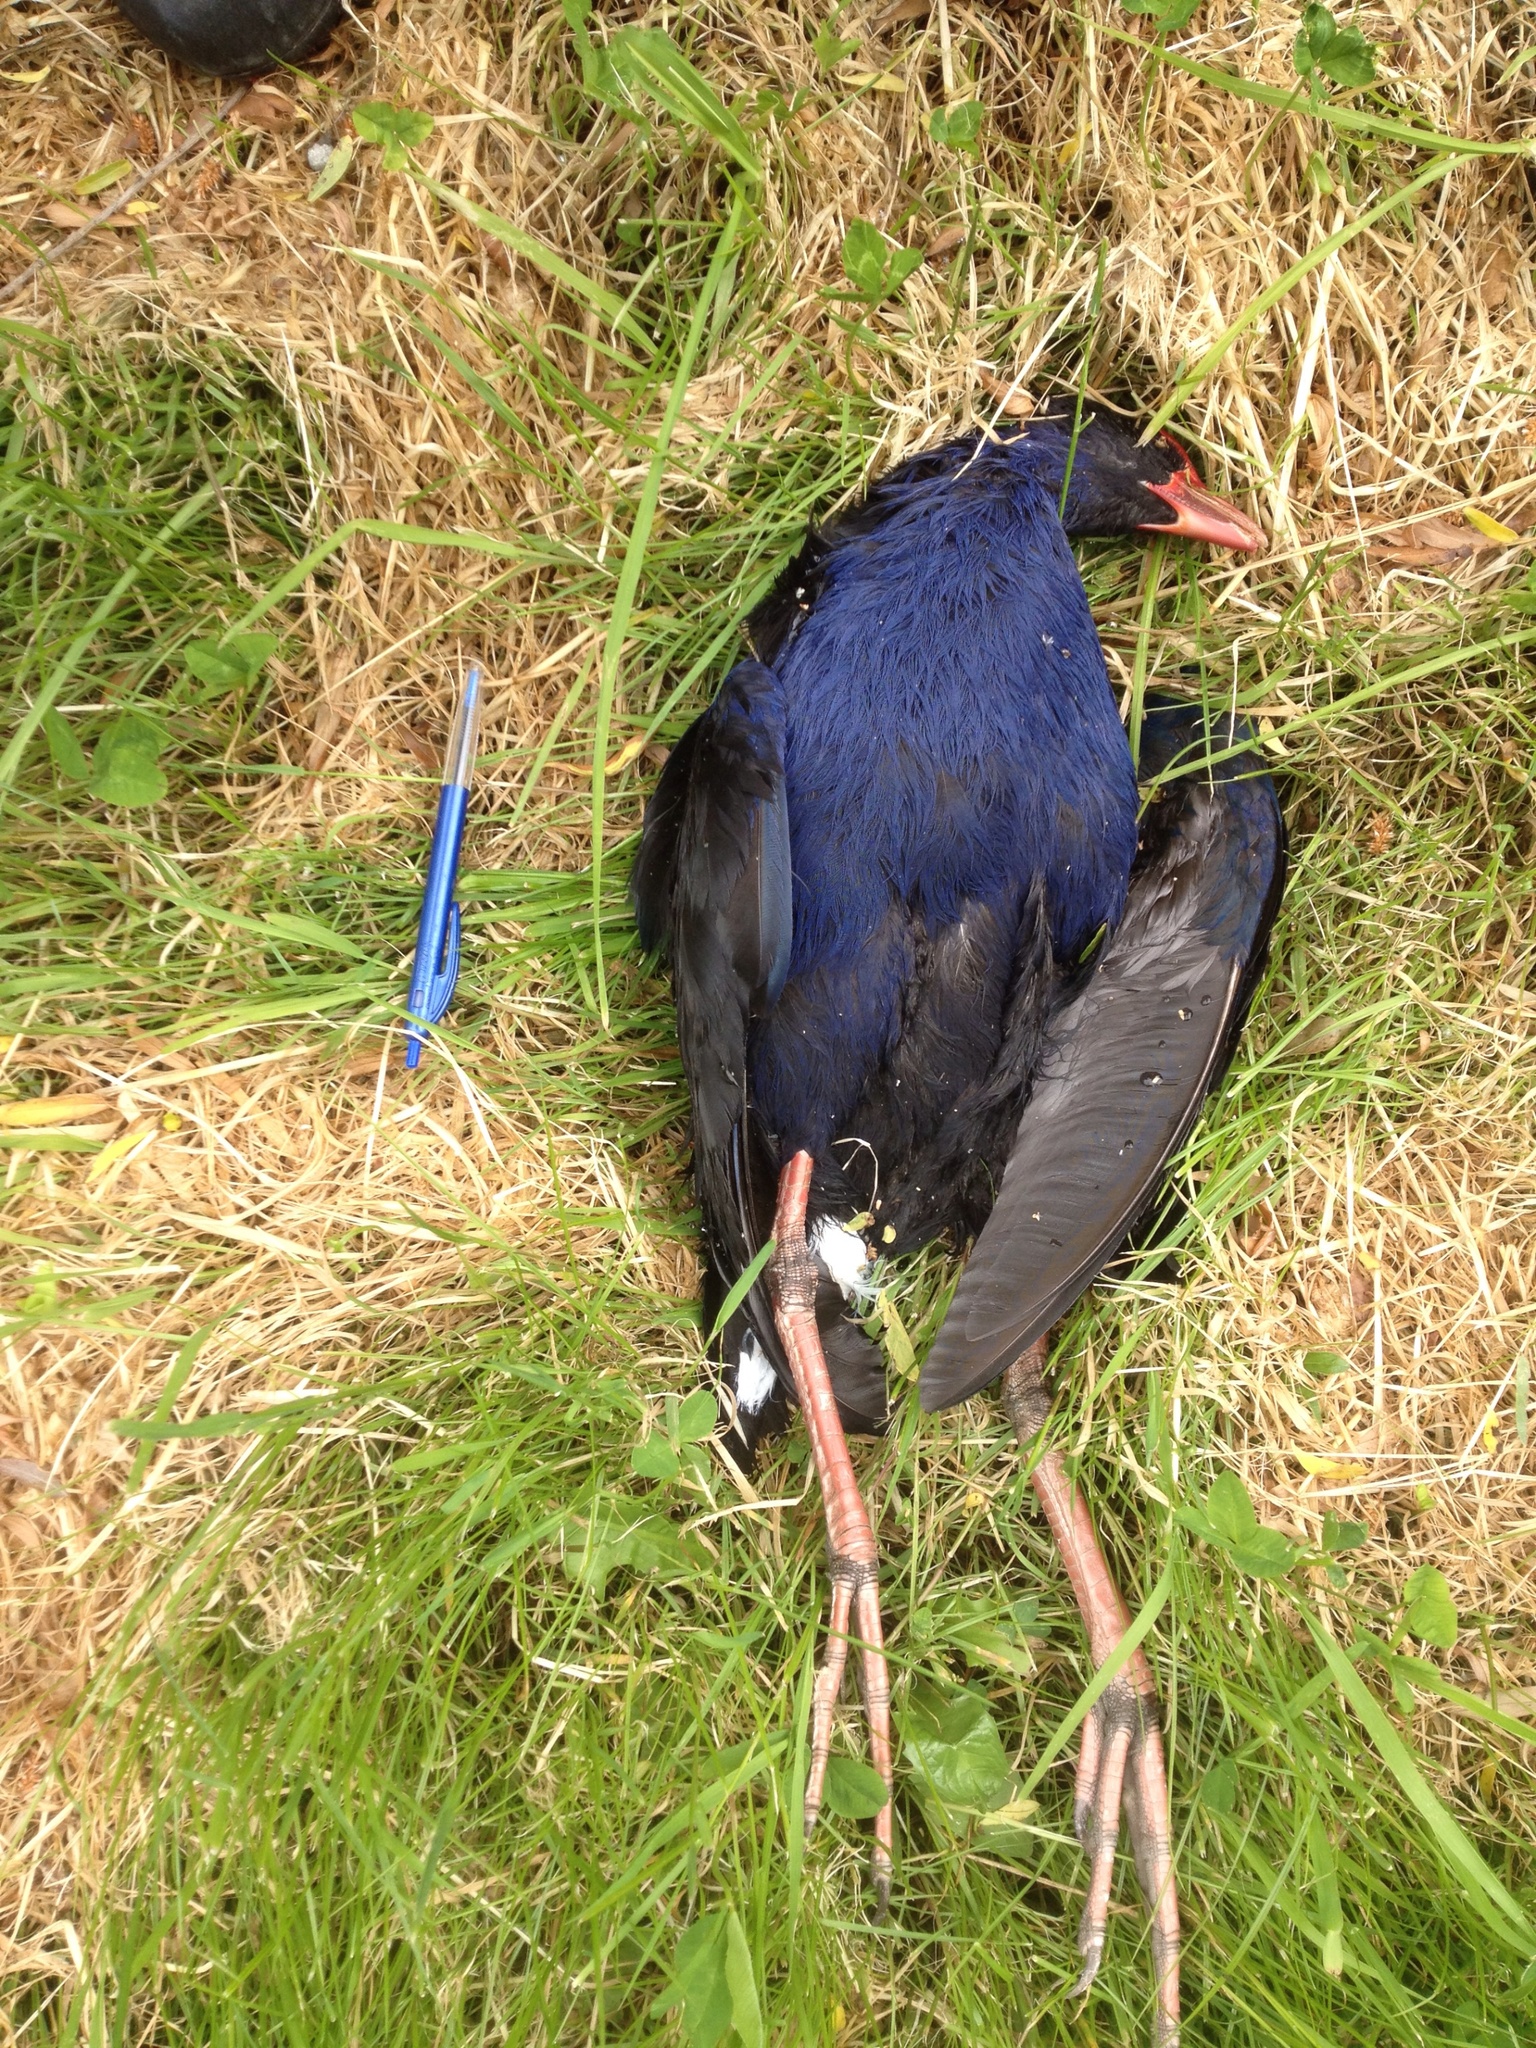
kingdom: Animalia
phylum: Chordata
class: Aves
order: Gruiformes
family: Rallidae
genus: Porphyrio
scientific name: Porphyrio melanotus
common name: Australasian swamphen
